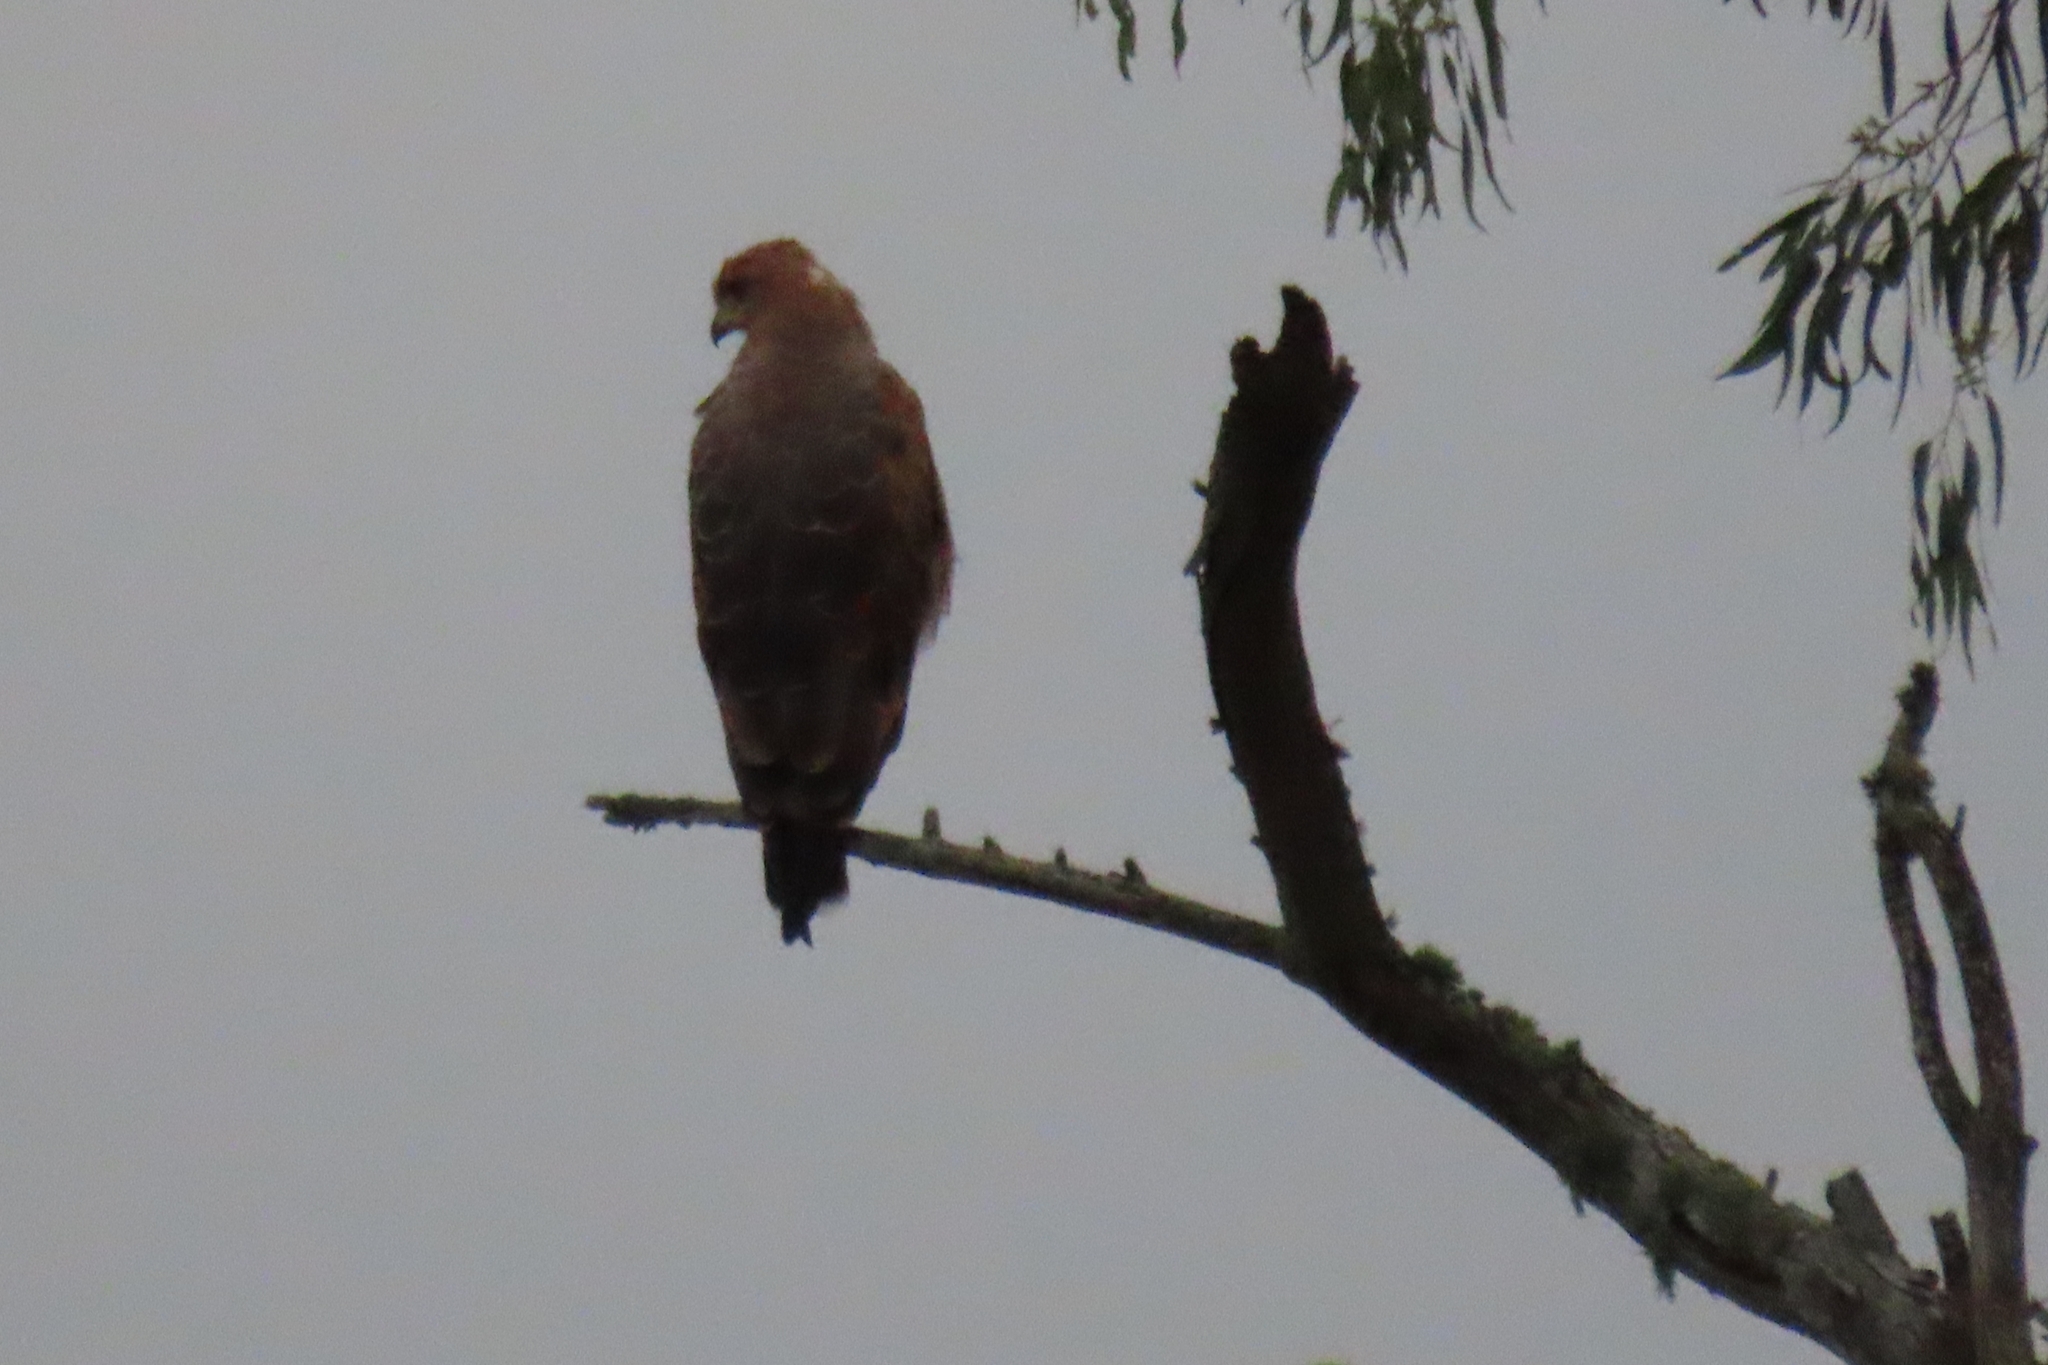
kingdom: Animalia
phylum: Chordata
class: Aves
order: Accipitriformes
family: Accipitridae
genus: Buteogallus
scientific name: Buteogallus meridionalis
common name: Savanna hawk
